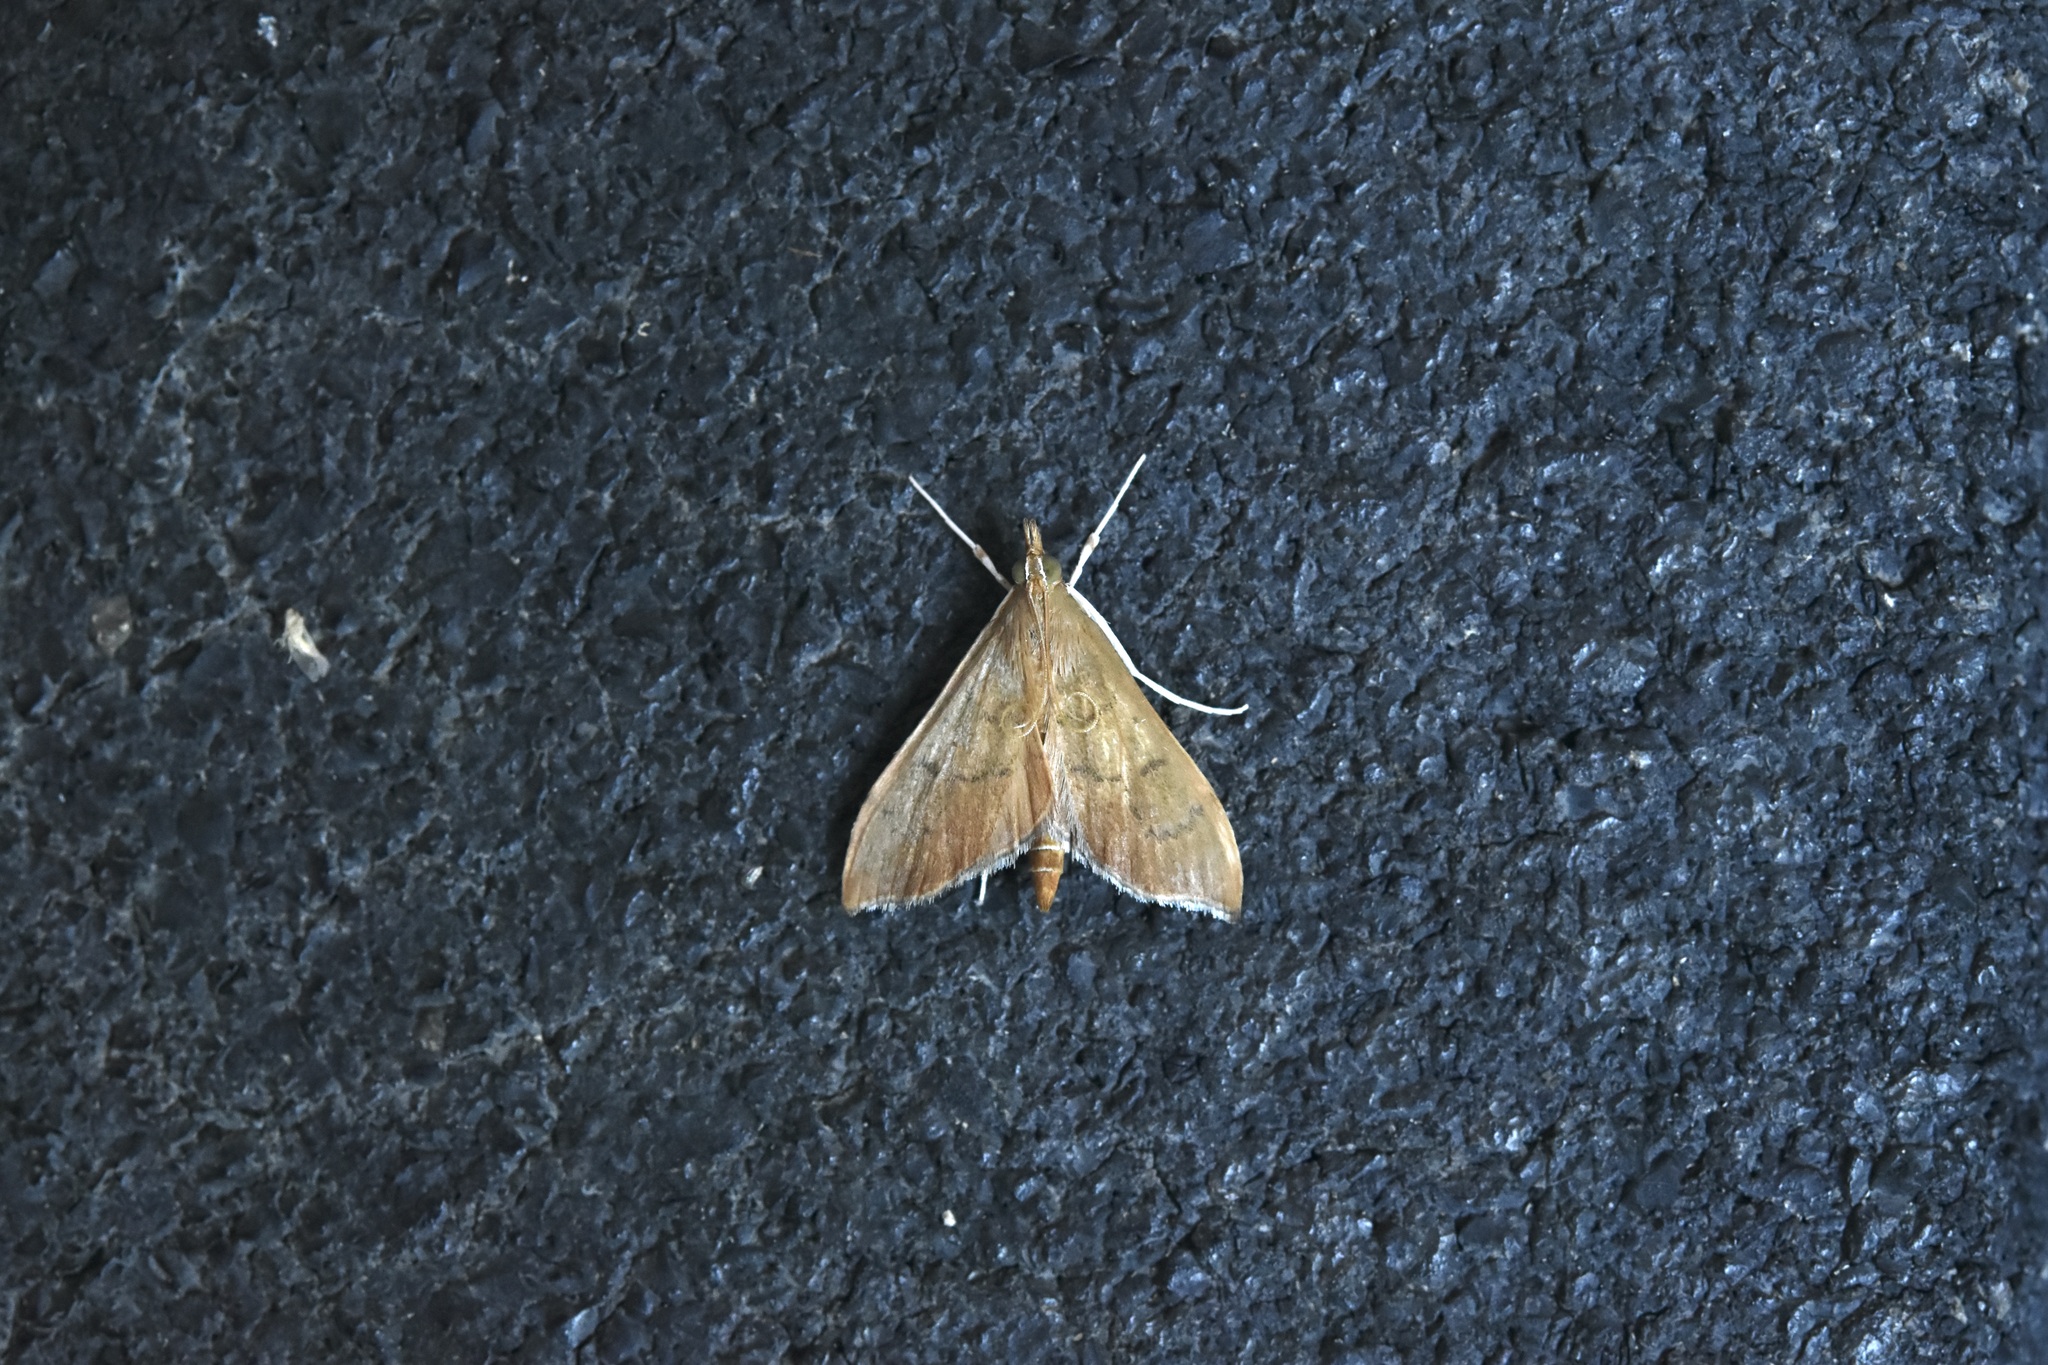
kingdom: Animalia
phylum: Arthropoda
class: Insecta
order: Lepidoptera
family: Crambidae
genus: Sericoplaga
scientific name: Sericoplaga externalis
